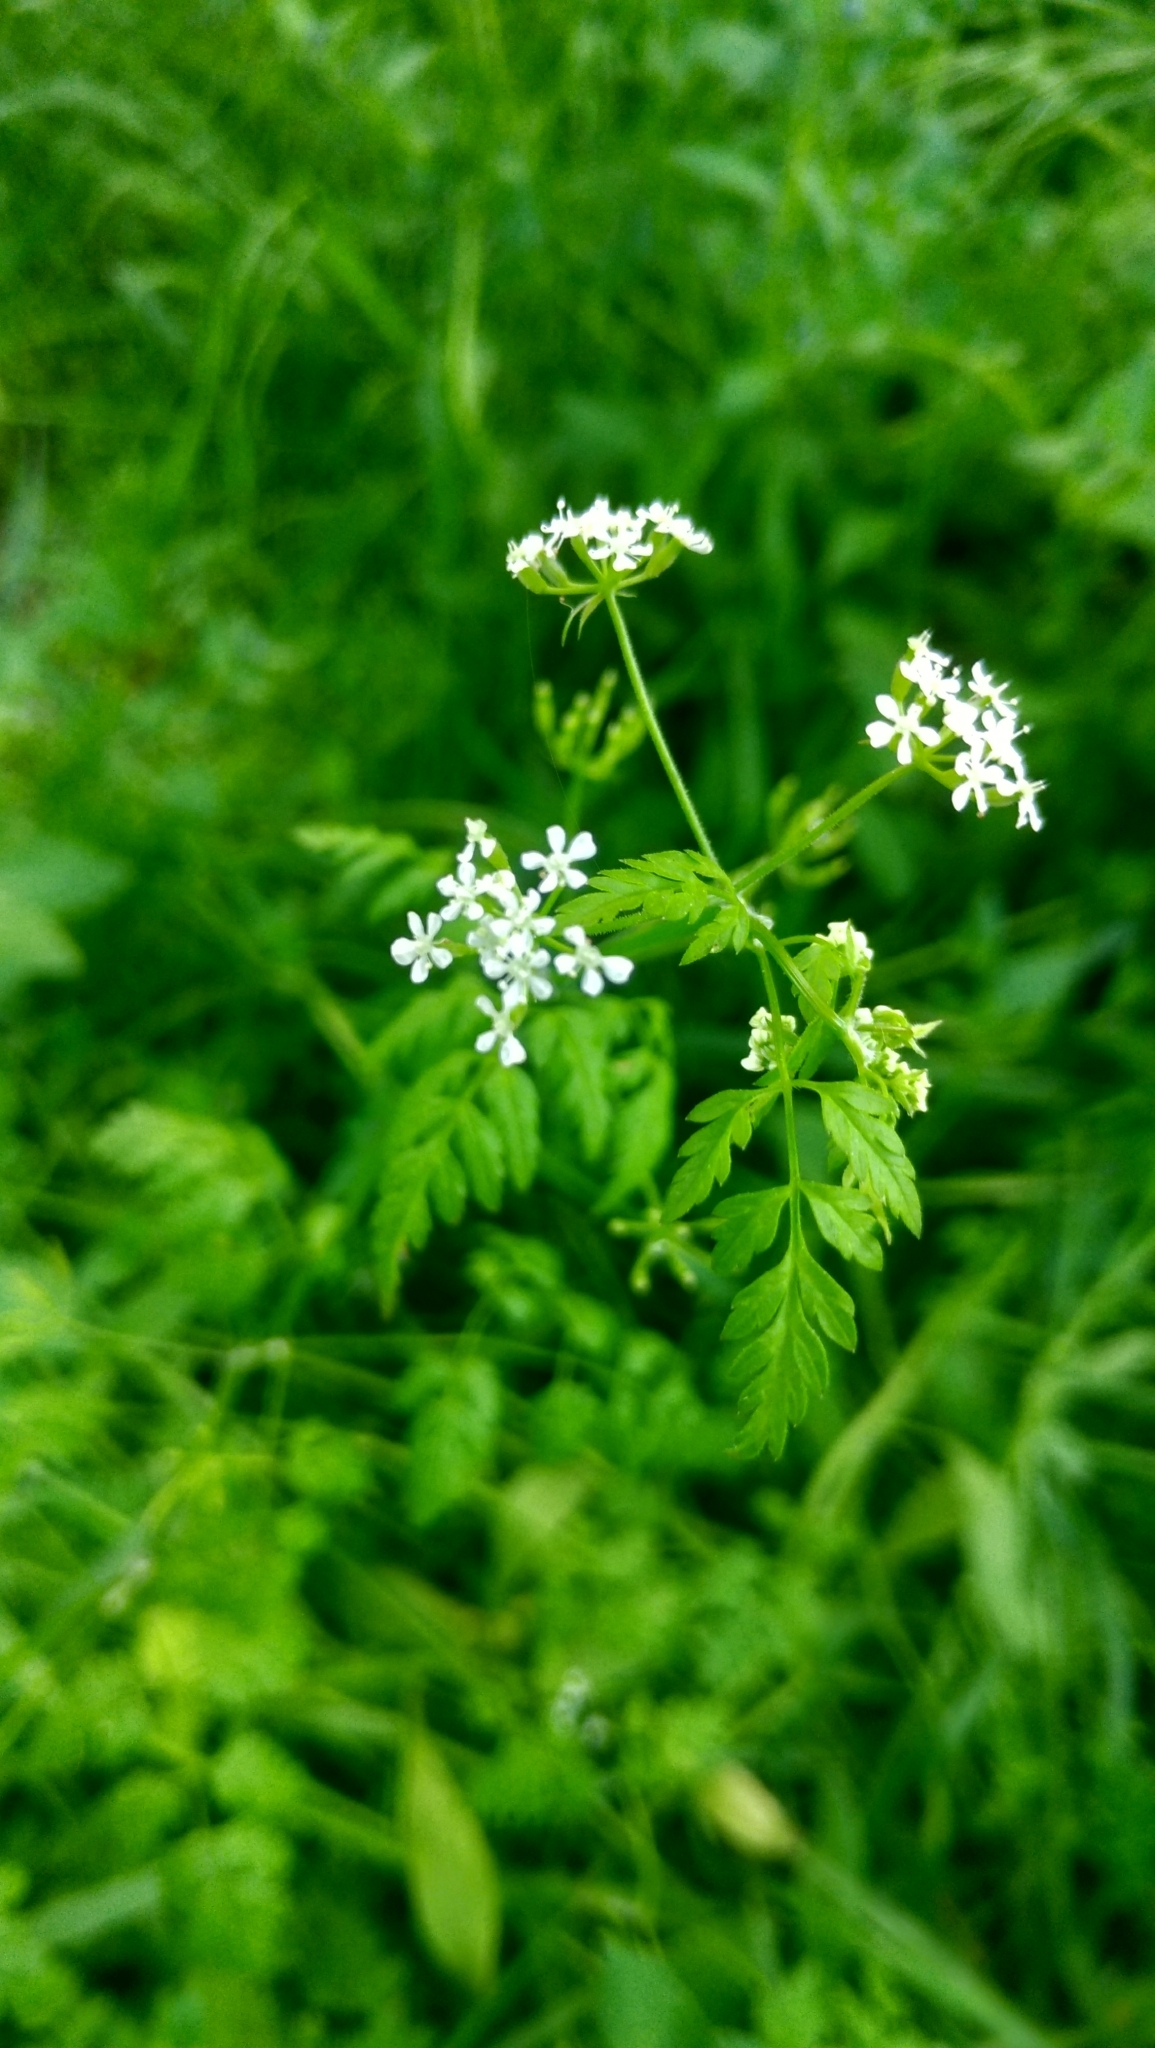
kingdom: Plantae
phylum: Tracheophyta
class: Magnoliopsida
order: Apiales
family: Apiaceae
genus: Anthriscus
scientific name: Anthriscus cerefolium
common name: Garden chervil
